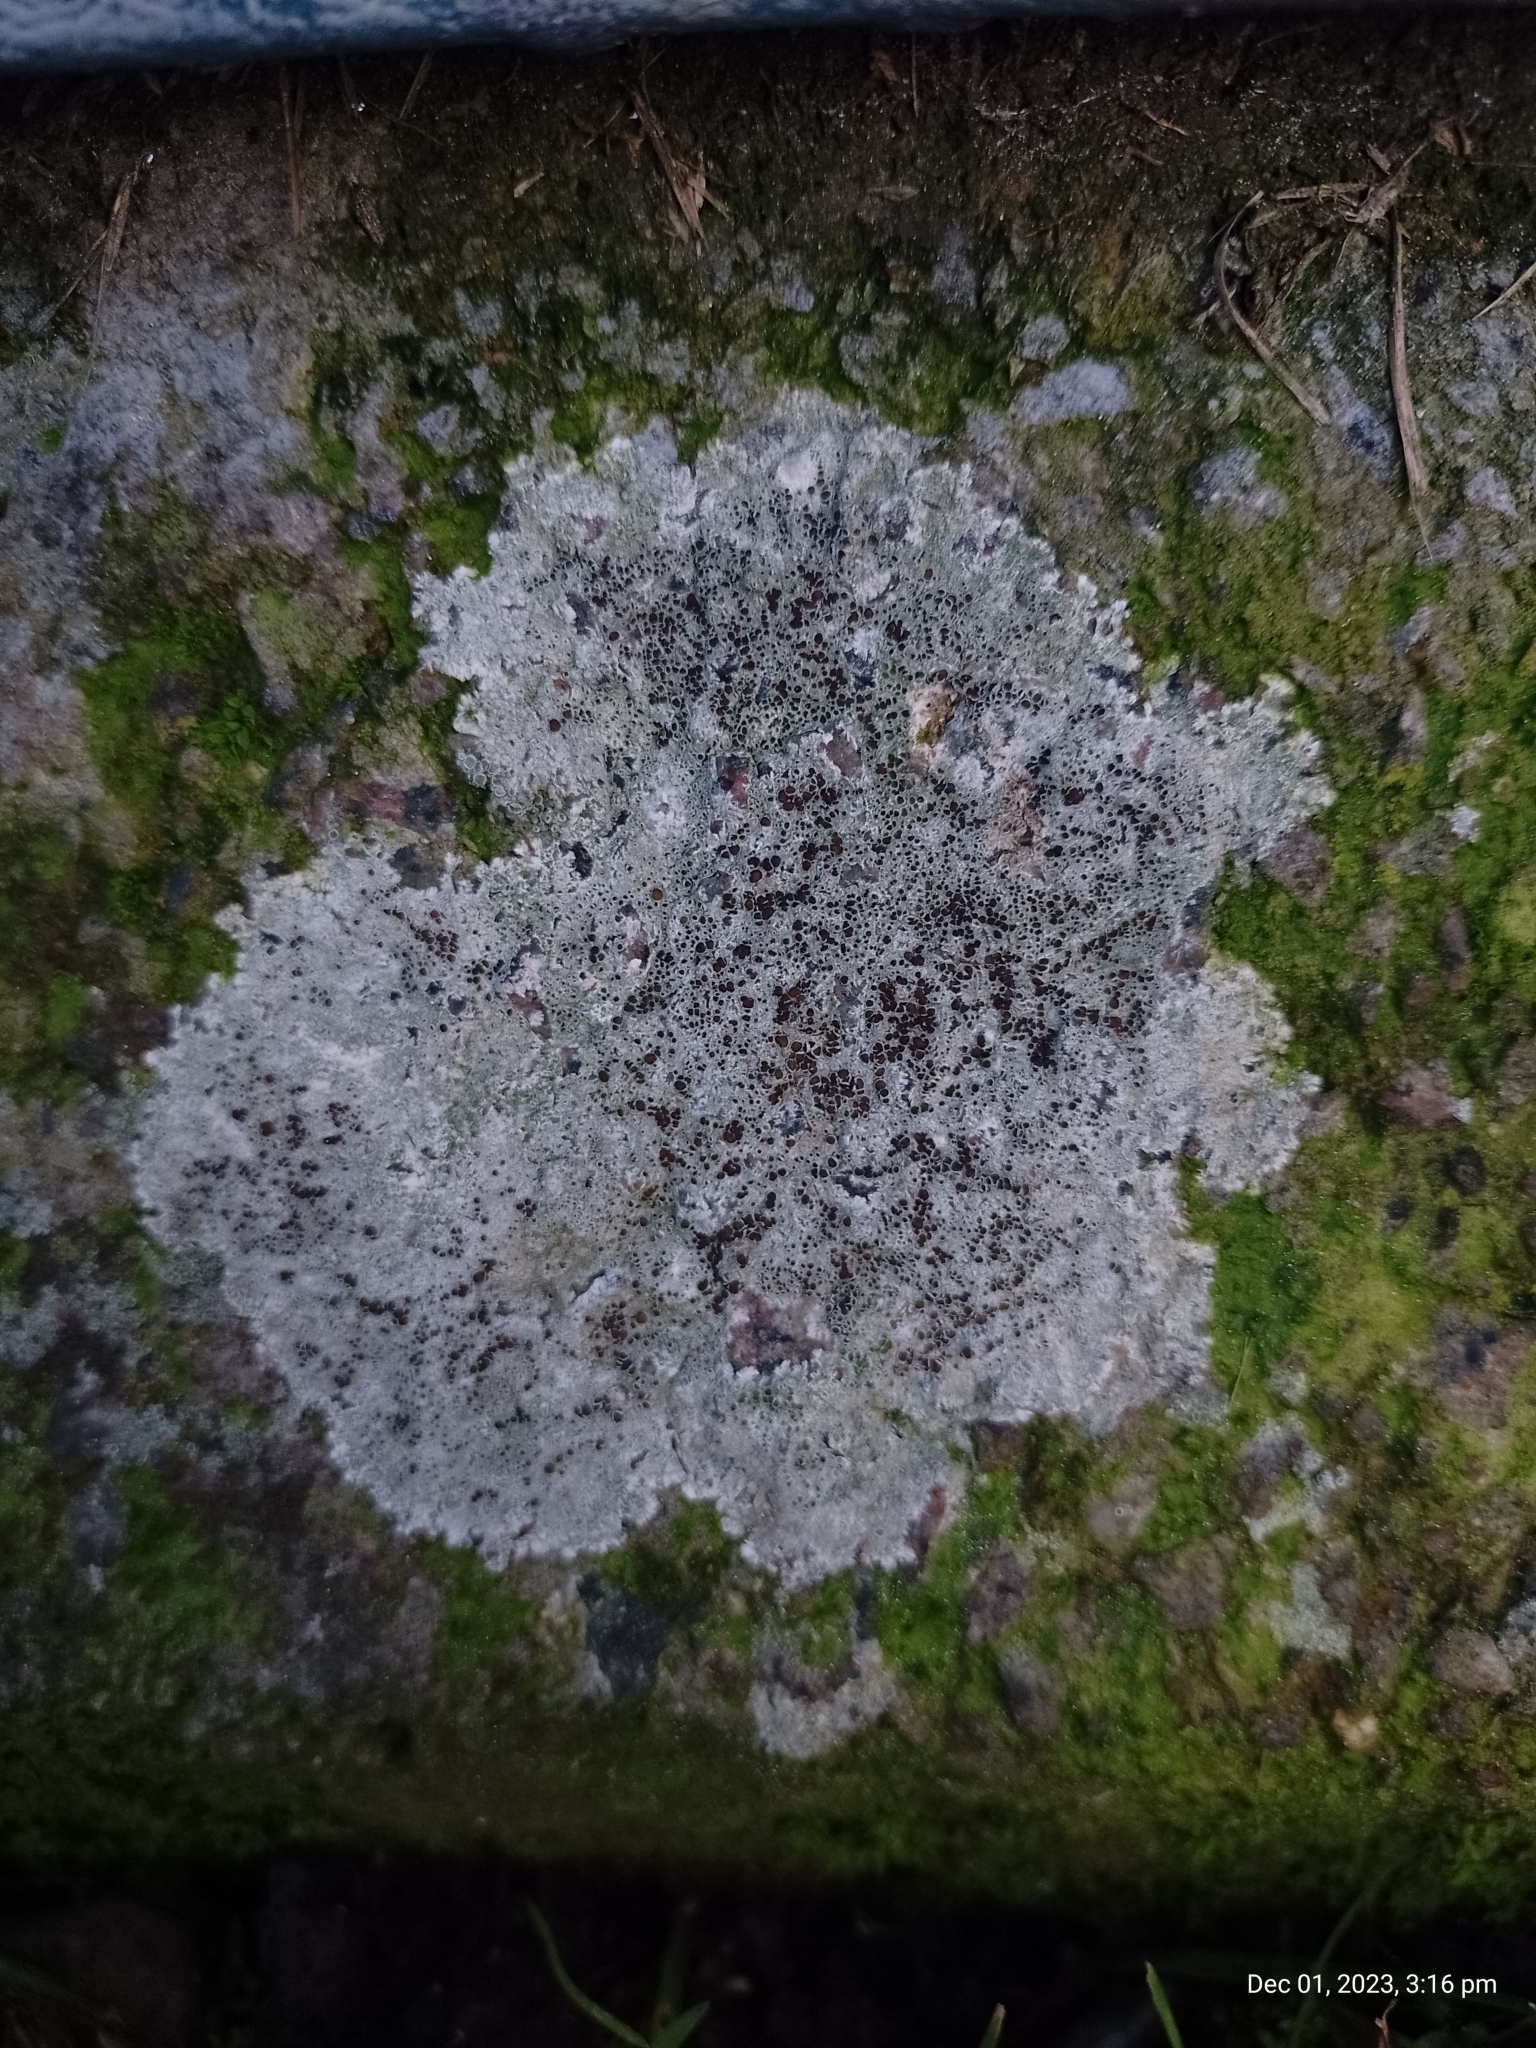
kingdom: Fungi
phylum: Ascomycota
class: Lecanoromycetes
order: Lecanorales
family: Lecanoraceae
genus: Lecanora
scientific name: Lecanora campestris
